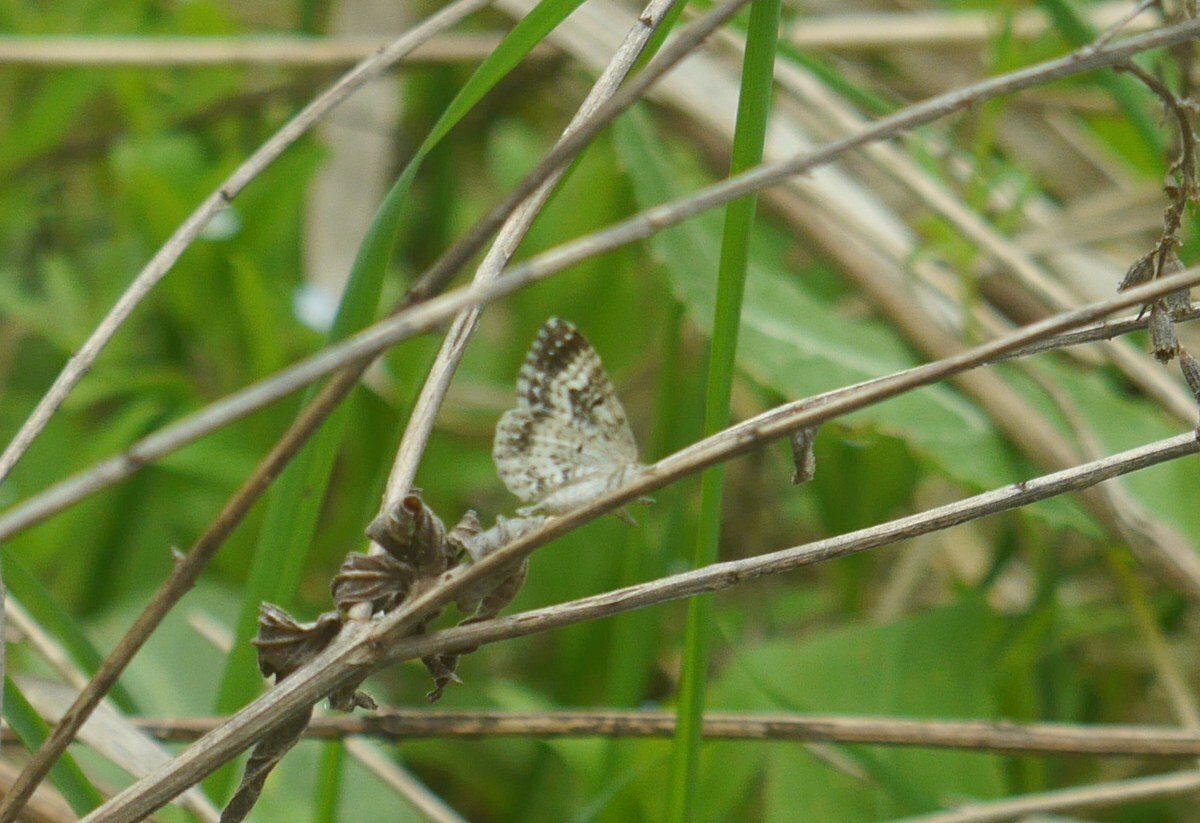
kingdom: Animalia
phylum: Arthropoda
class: Insecta
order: Lepidoptera
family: Geometridae
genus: Epirrhoe
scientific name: Epirrhoe alternata
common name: Common carpet
